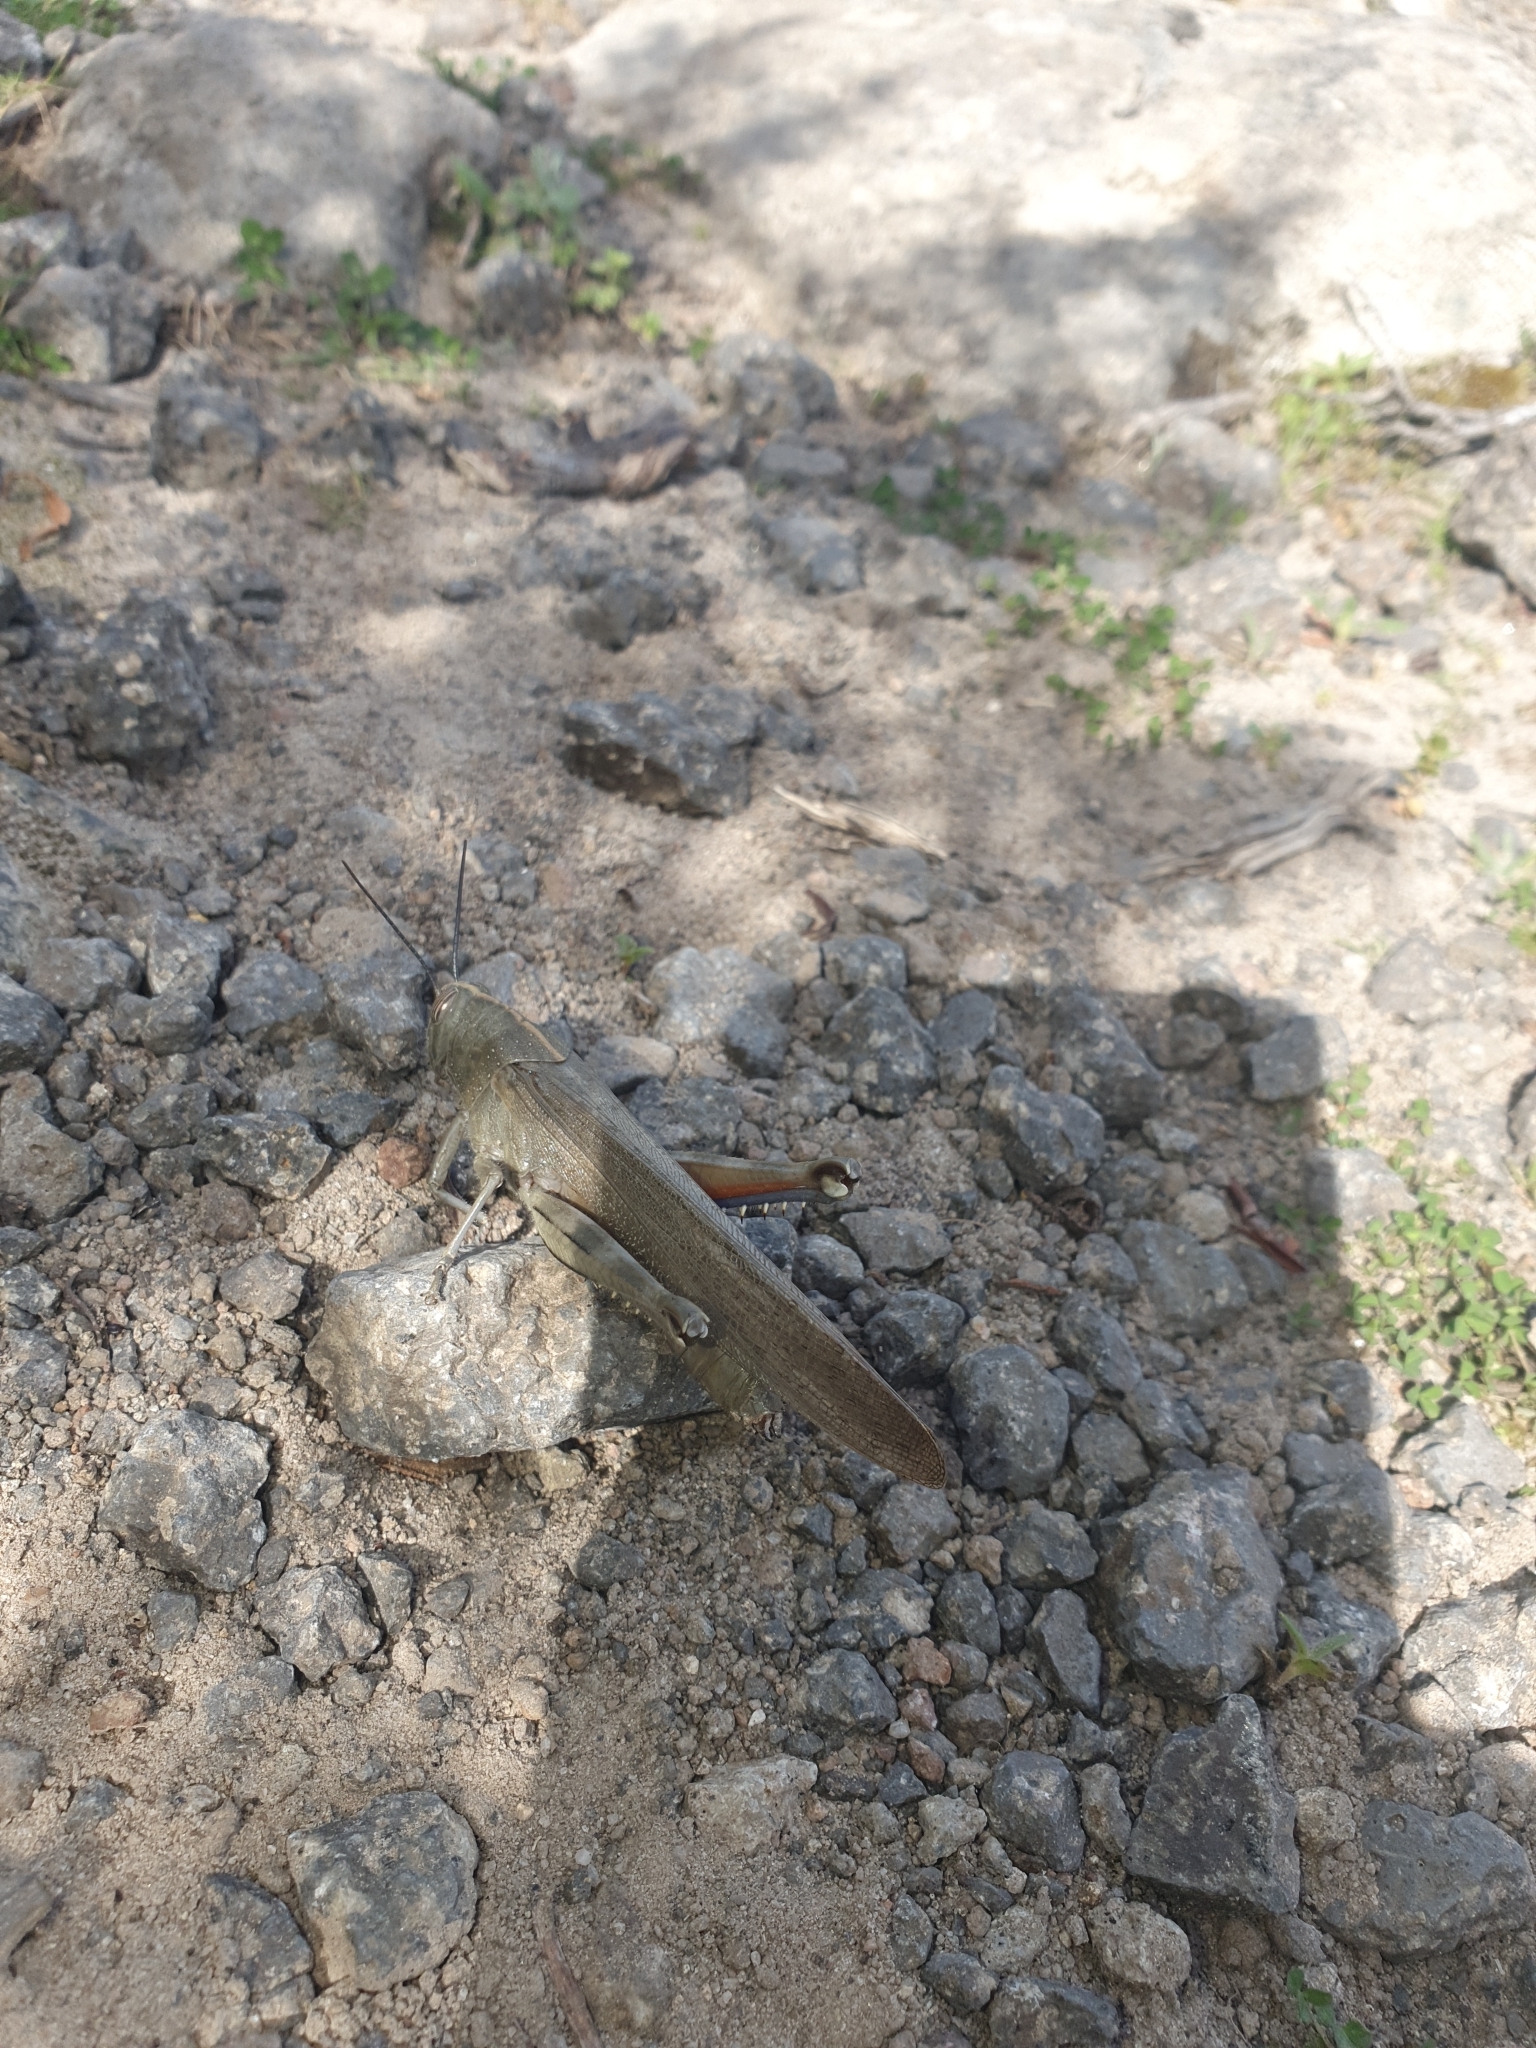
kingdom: Animalia
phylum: Arthropoda
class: Insecta
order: Orthoptera
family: Acrididae
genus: Anacridium
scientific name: Anacridium aegyptium
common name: Egyptian grasshopper
